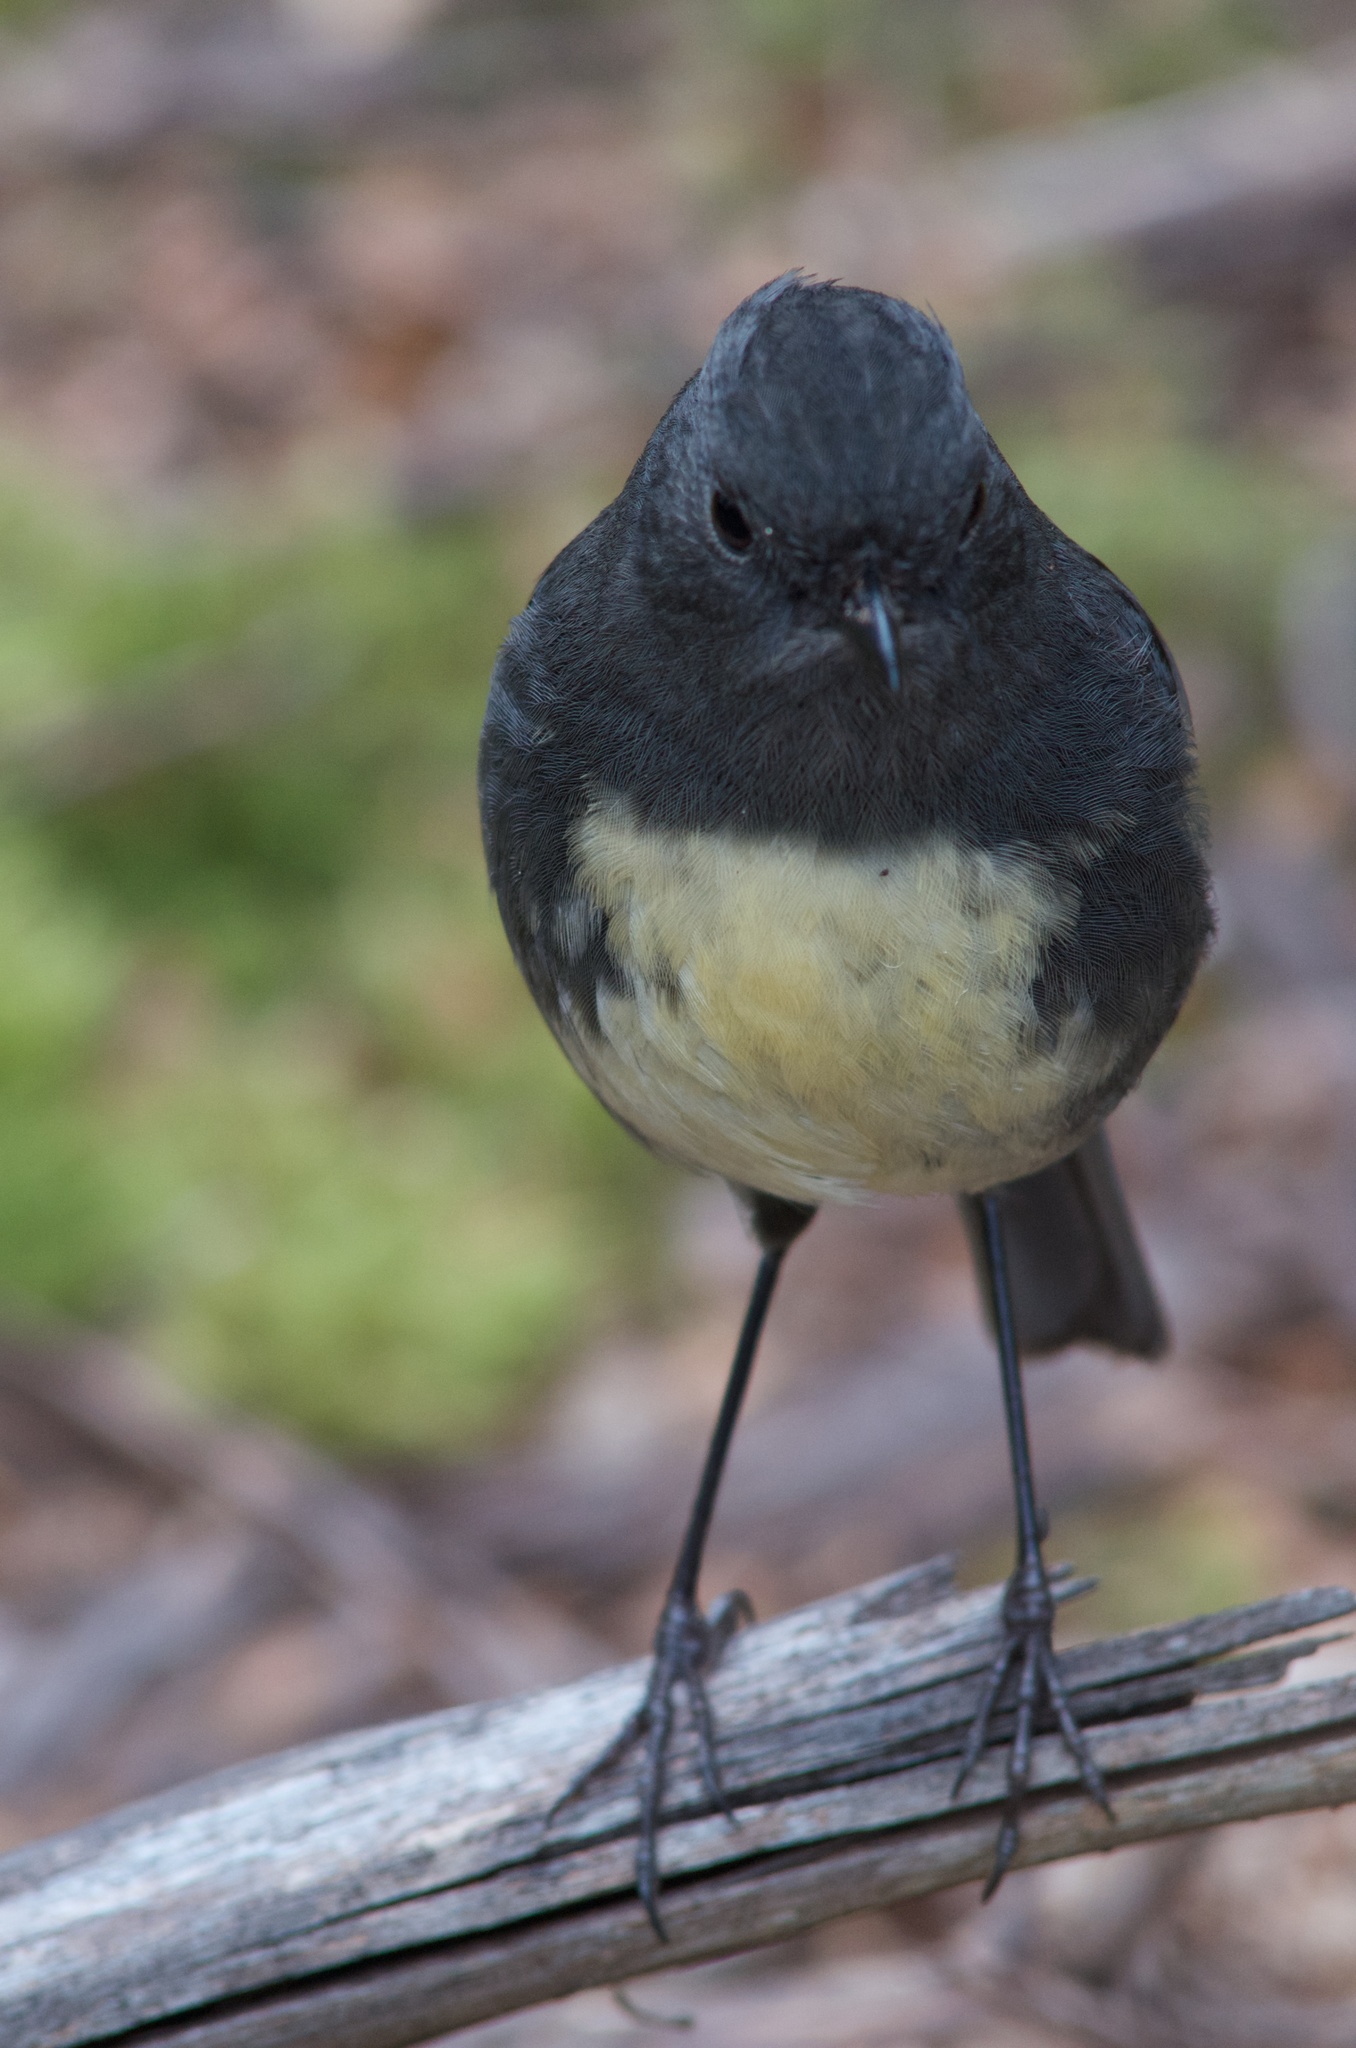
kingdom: Animalia
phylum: Chordata
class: Aves
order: Passeriformes
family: Petroicidae
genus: Petroica
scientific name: Petroica australis
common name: New zealand robin
